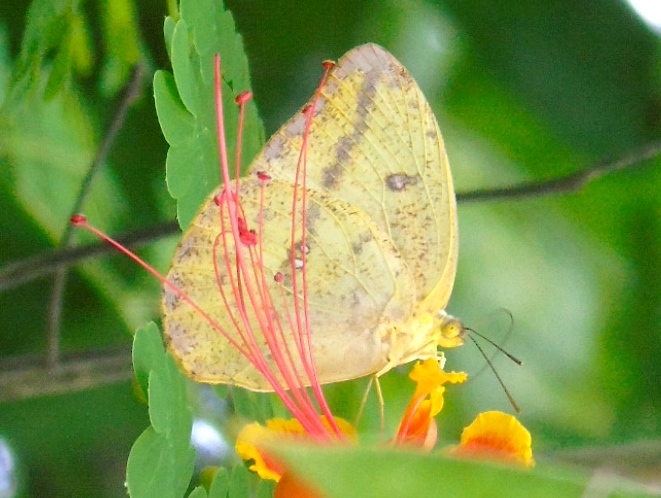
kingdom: Animalia
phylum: Arthropoda
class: Insecta
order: Lepidoptera
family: Pieridae
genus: Phoebis
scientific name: Phoebis agarithe
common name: Large orange sulphur
